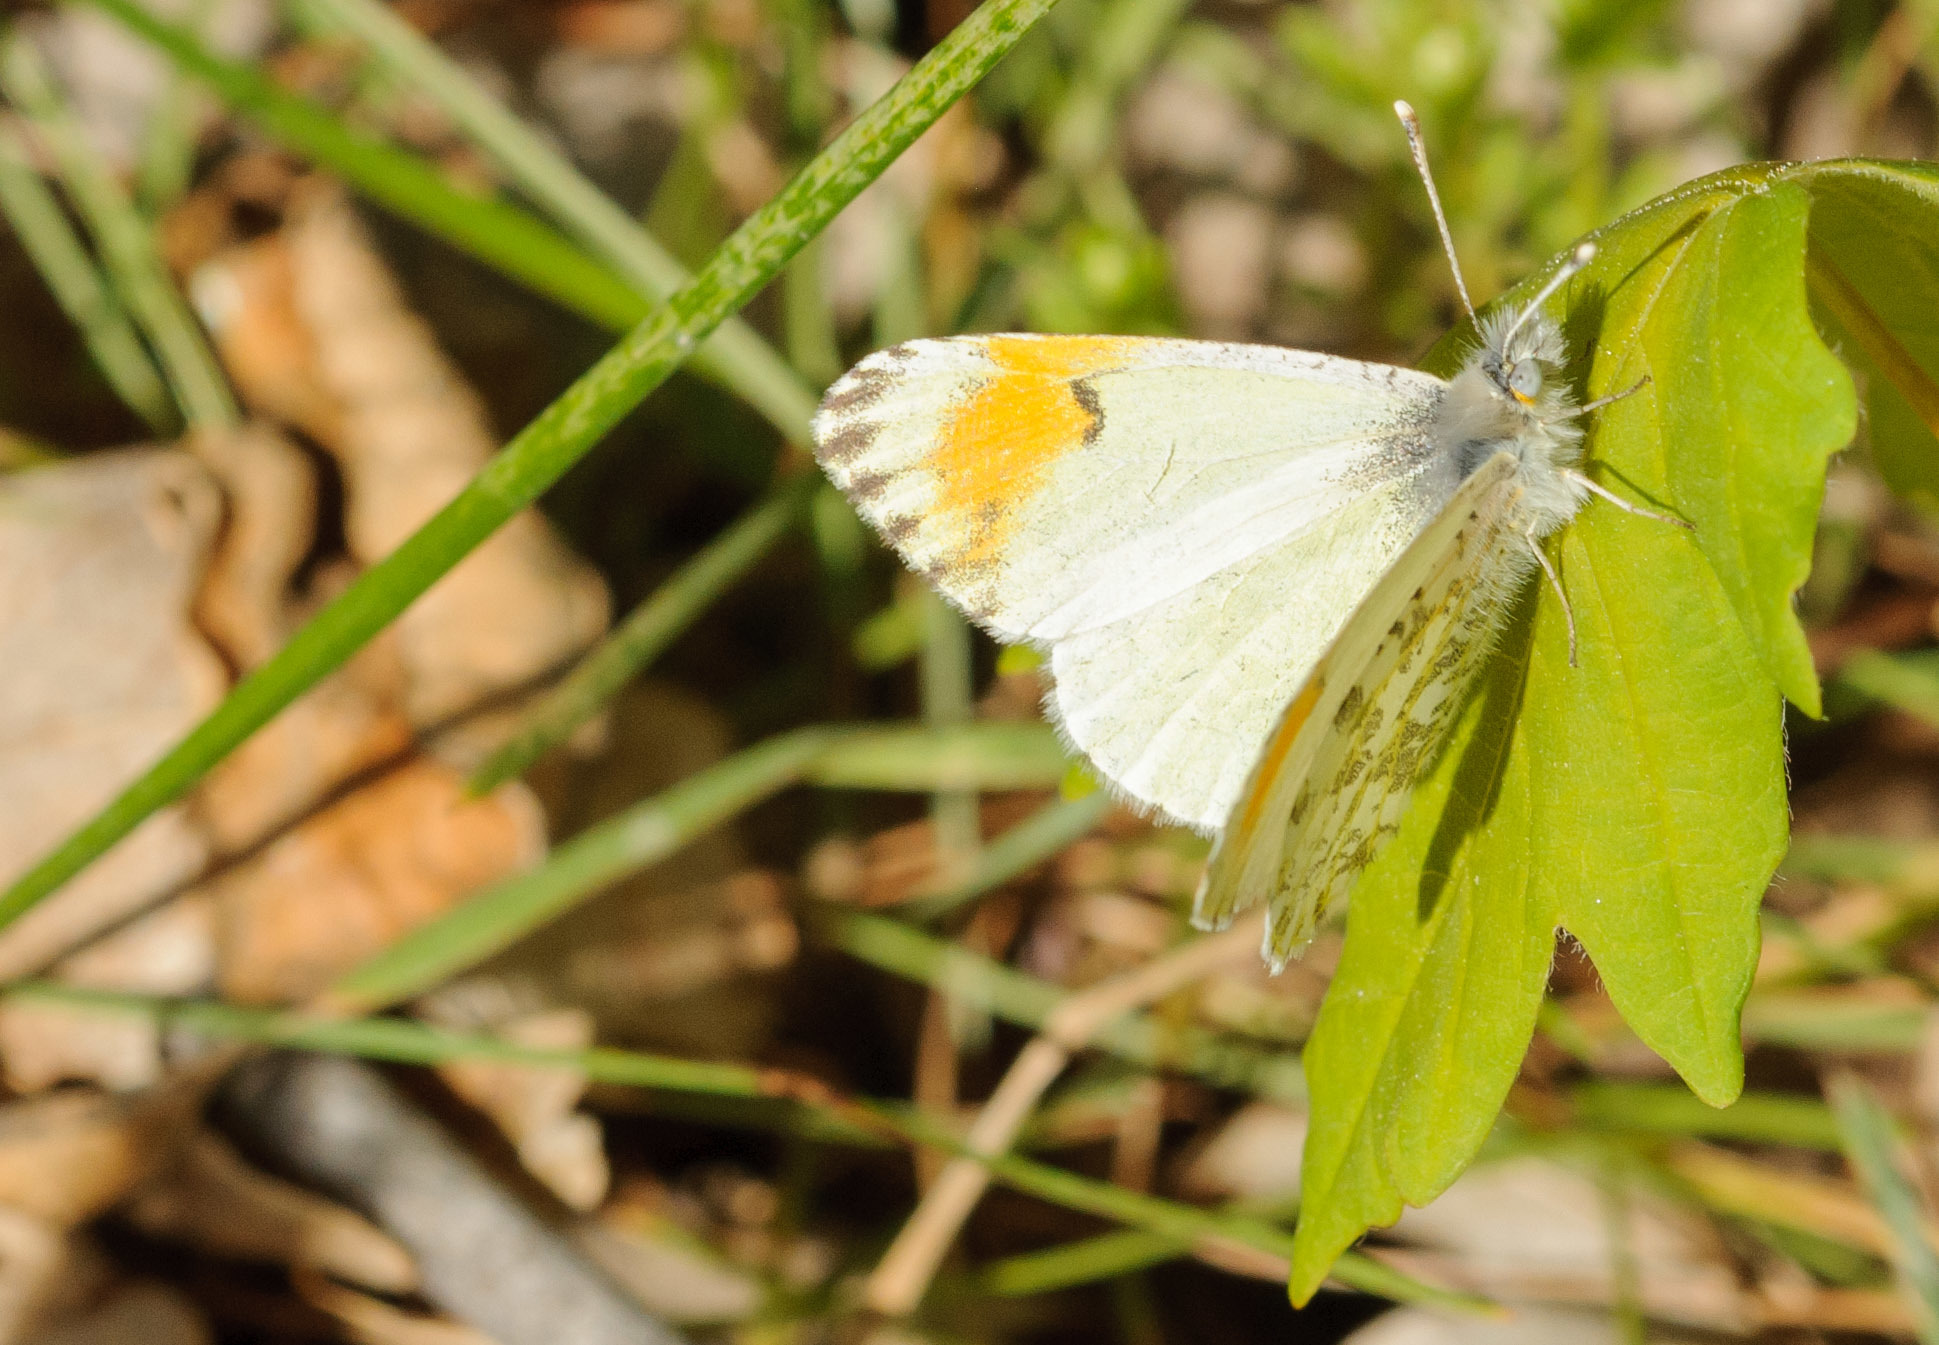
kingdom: Animalia
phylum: Arthropoda
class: Insecta
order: Lepidoptera
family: Pieridae
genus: Anthocharis
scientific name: Anthocharis julia
